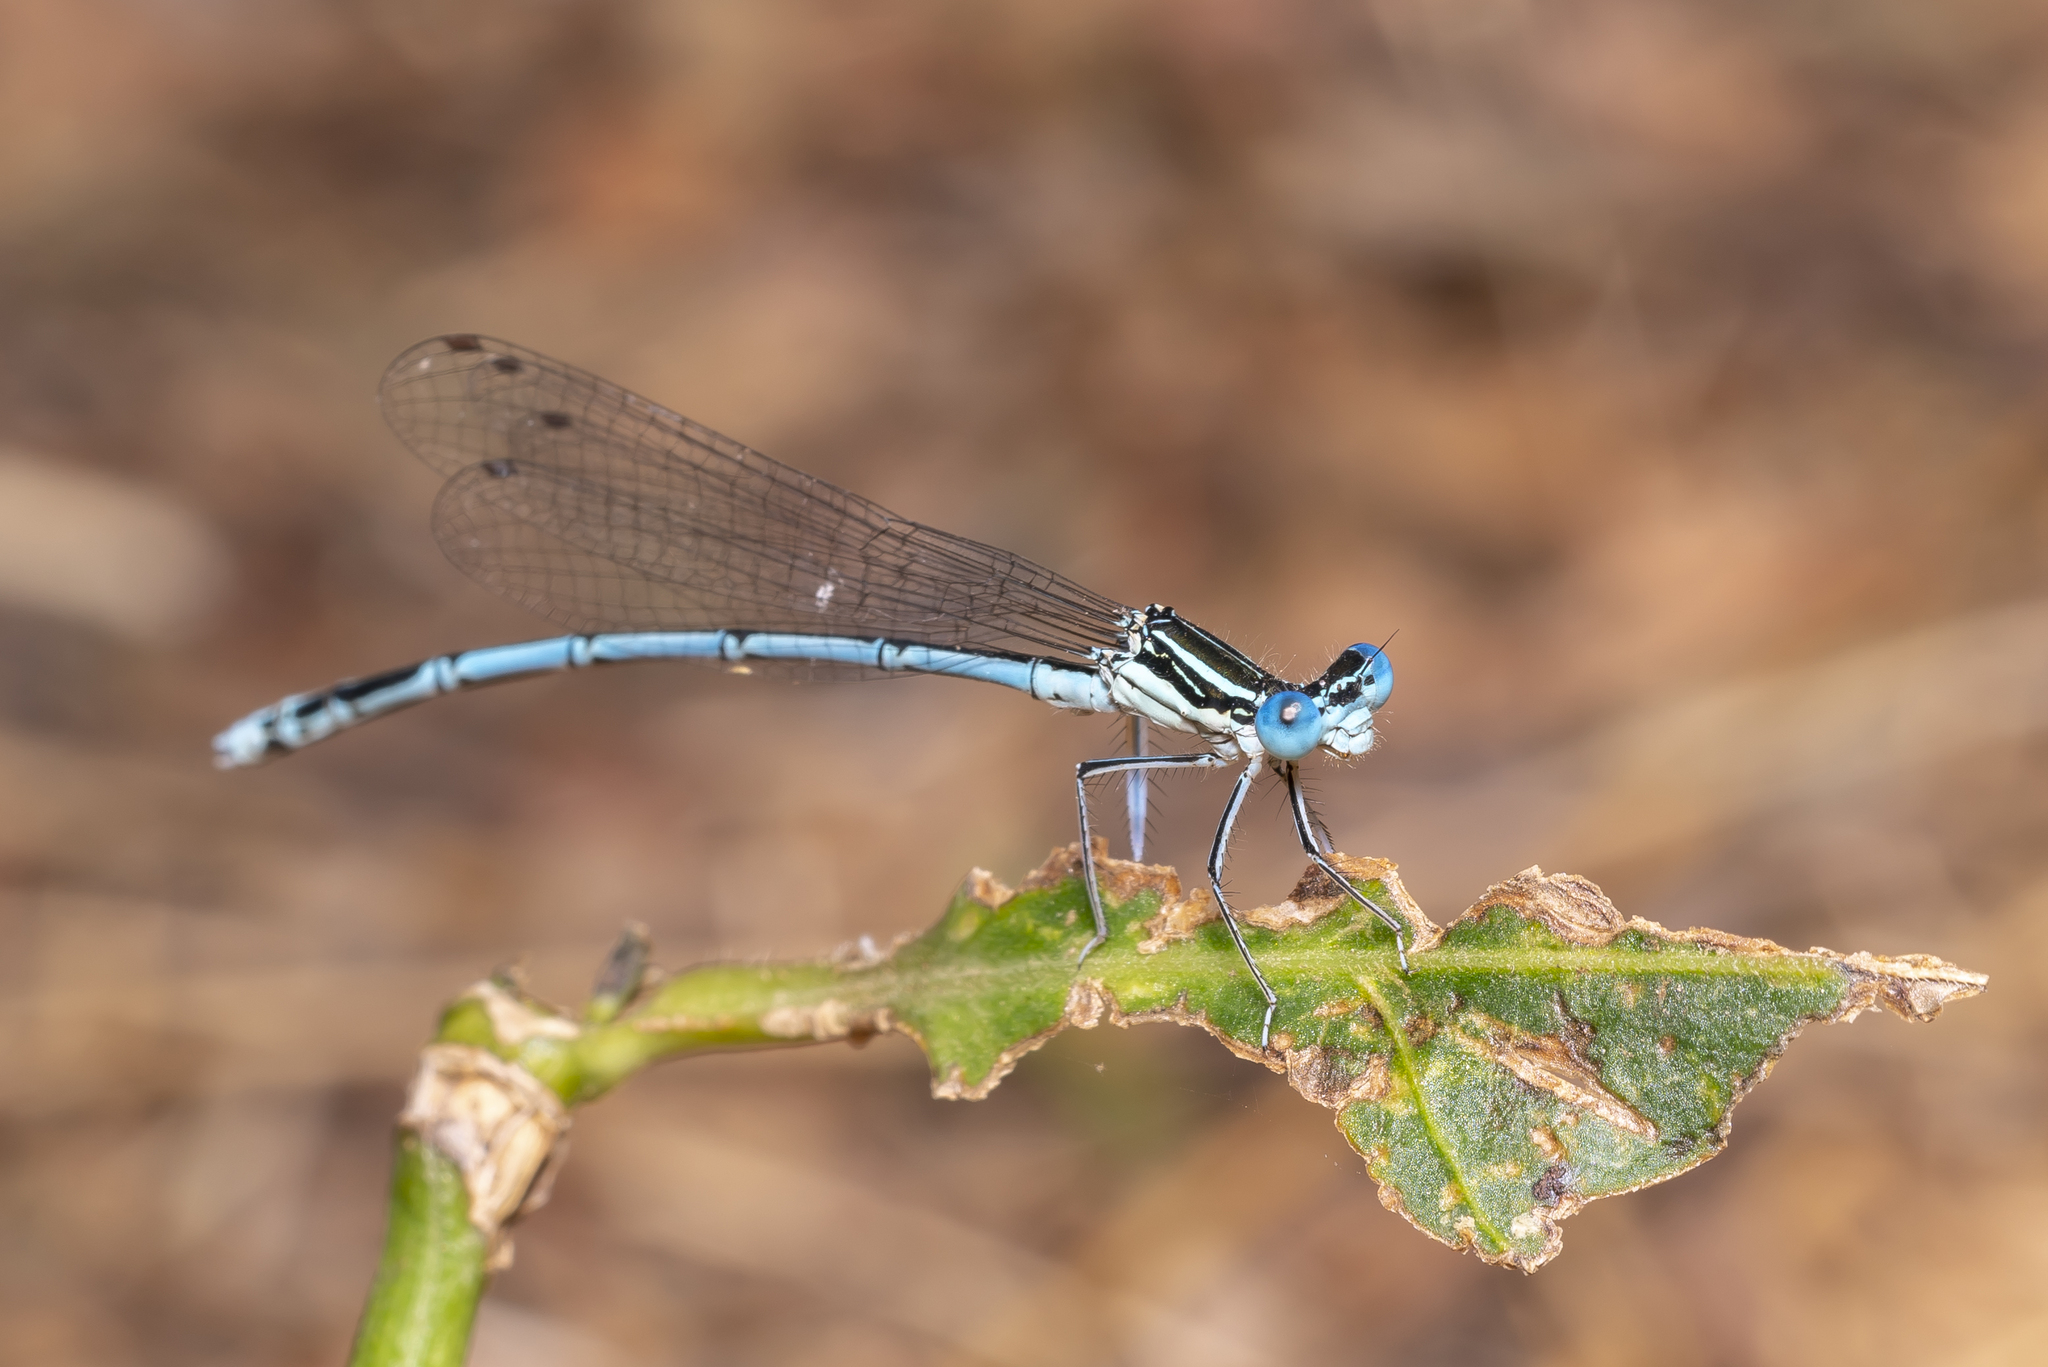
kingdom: Animalia
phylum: Arthropoda
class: Insecta
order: Odonata
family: Platycnemididae
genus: Platycnemis
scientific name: Platycnemis pennipes
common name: White-legged damselfly
